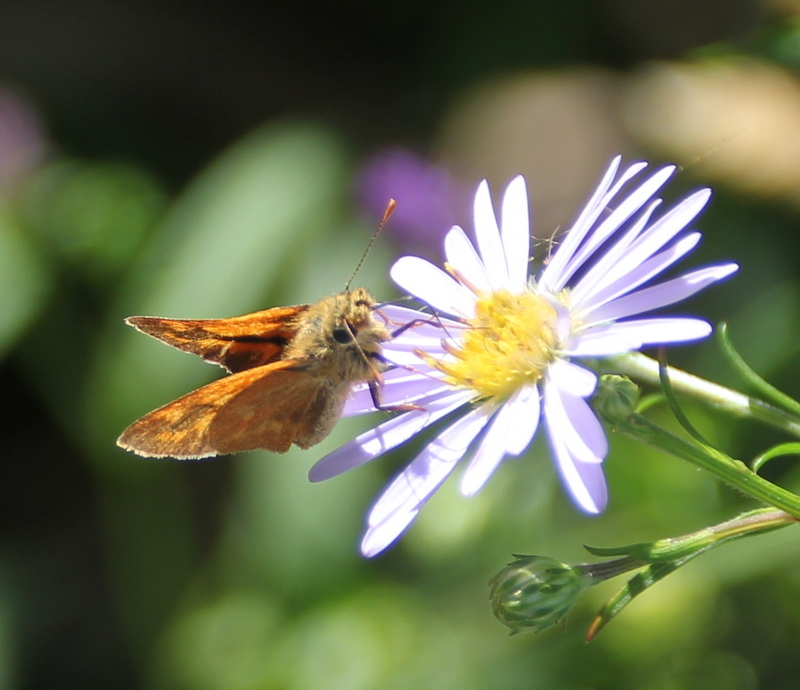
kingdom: Animalia
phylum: Arthropoda
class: Insecta
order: Lepidoptera
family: Hesperiidae
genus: Ochlodes
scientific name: Ochlodes sylvanoides
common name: Woodland skipper
